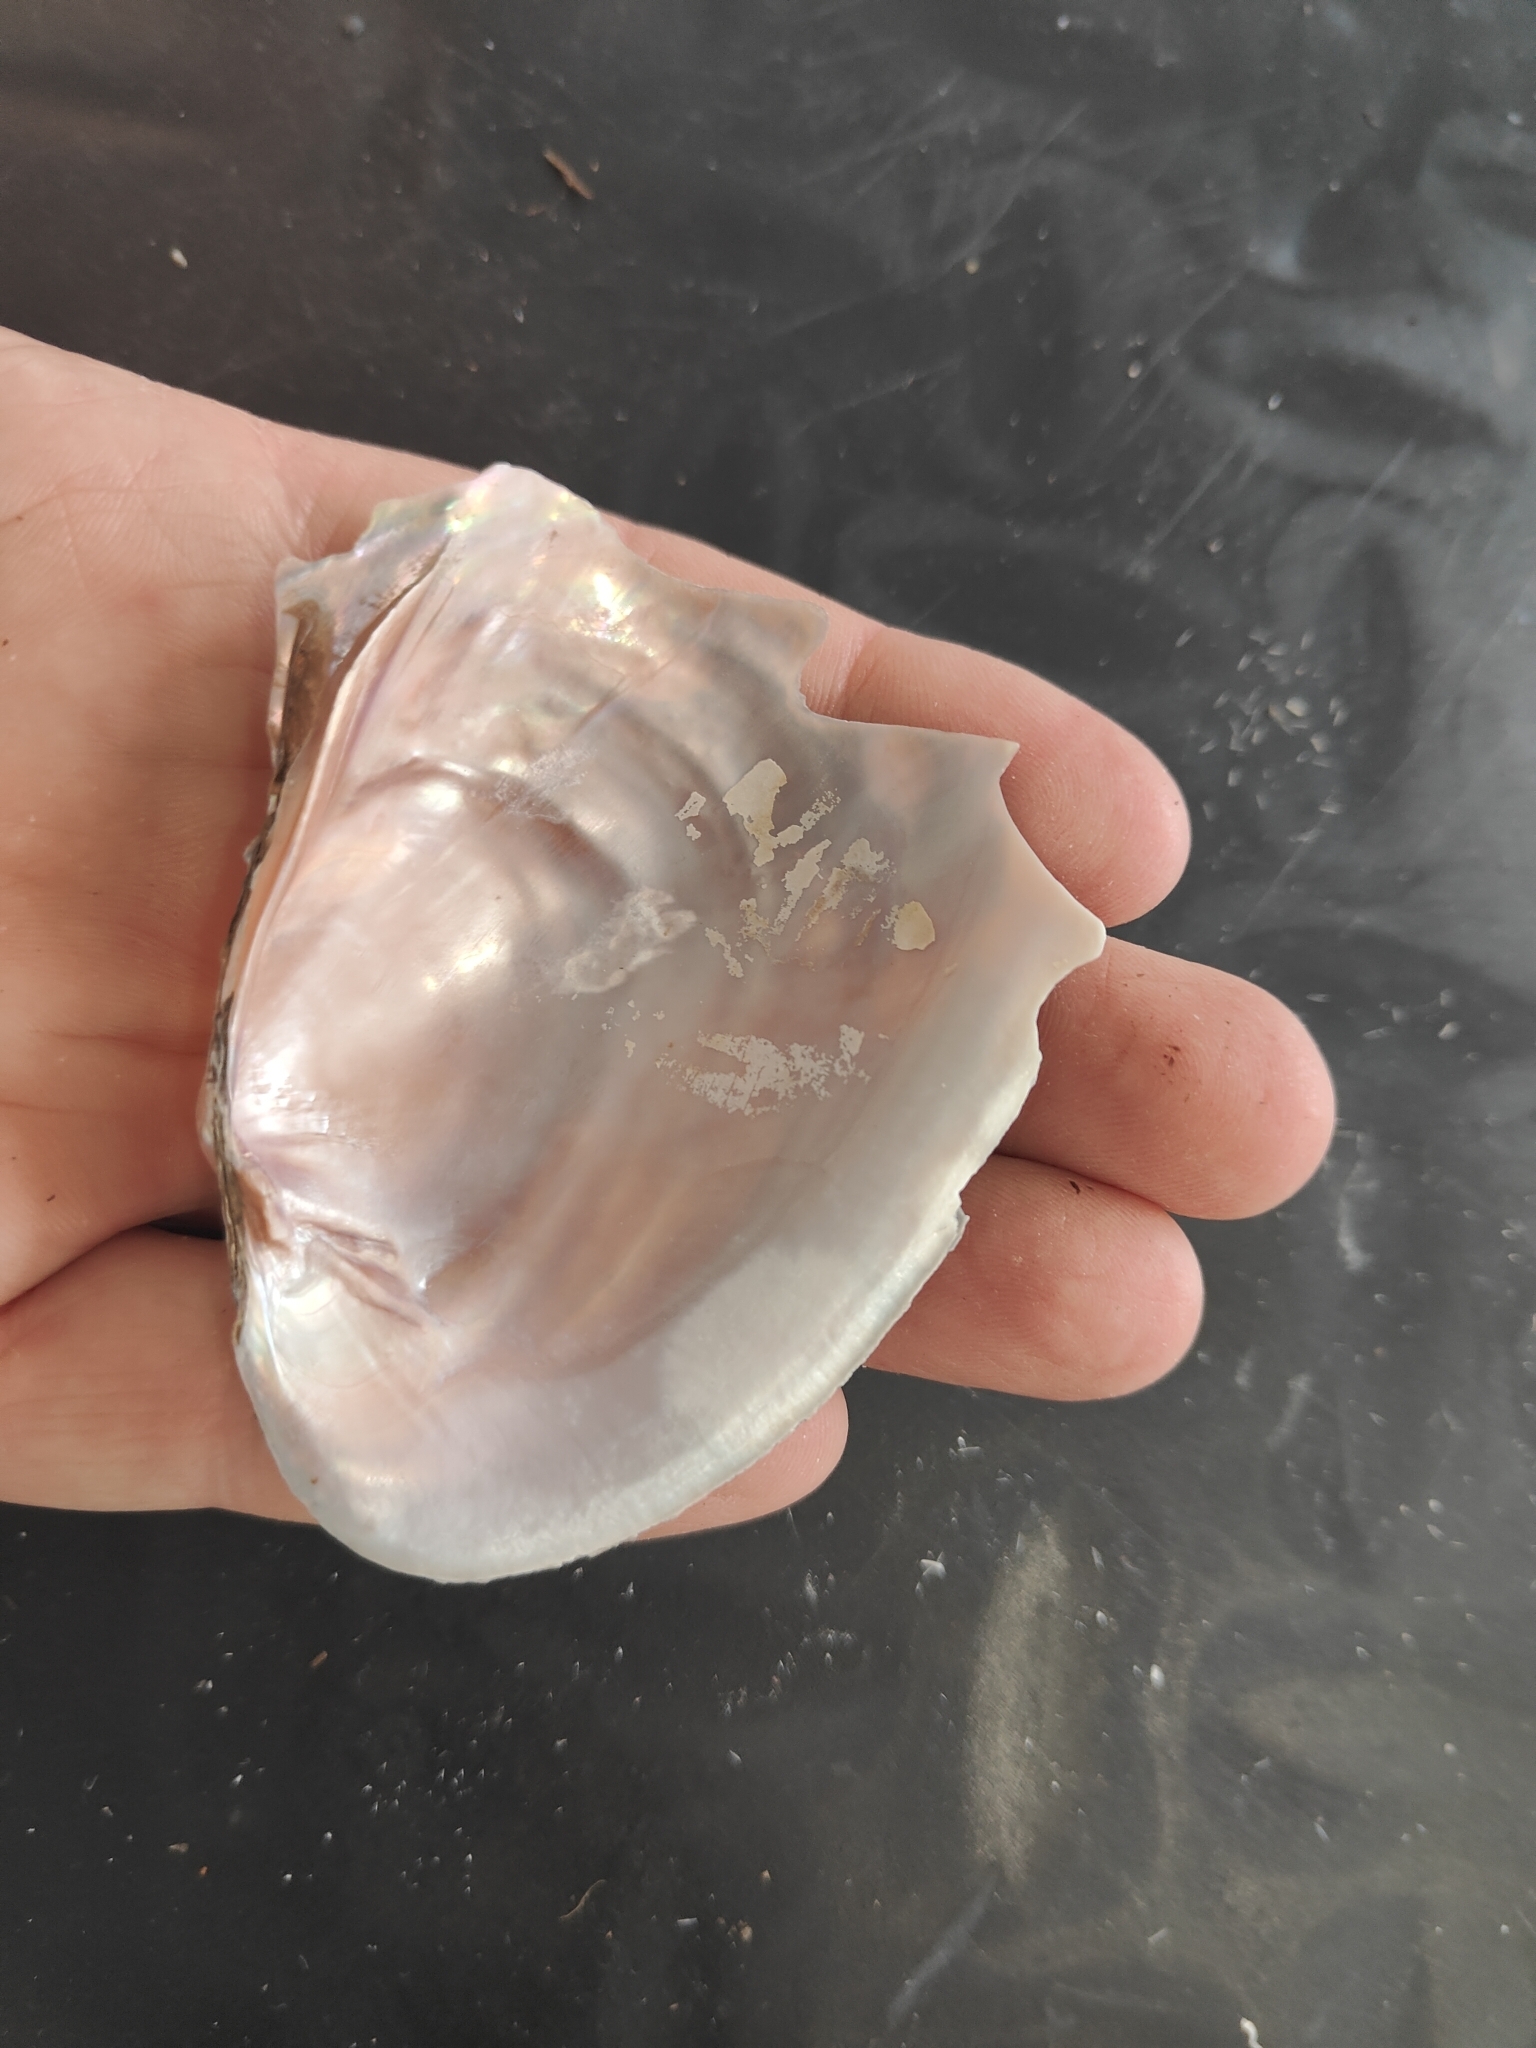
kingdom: Animalia
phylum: Mollusca
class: Bivalvia
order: Unionida
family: Unionidae
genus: Potamilus
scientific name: Potamilus alatus
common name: Pink heelsplitter
